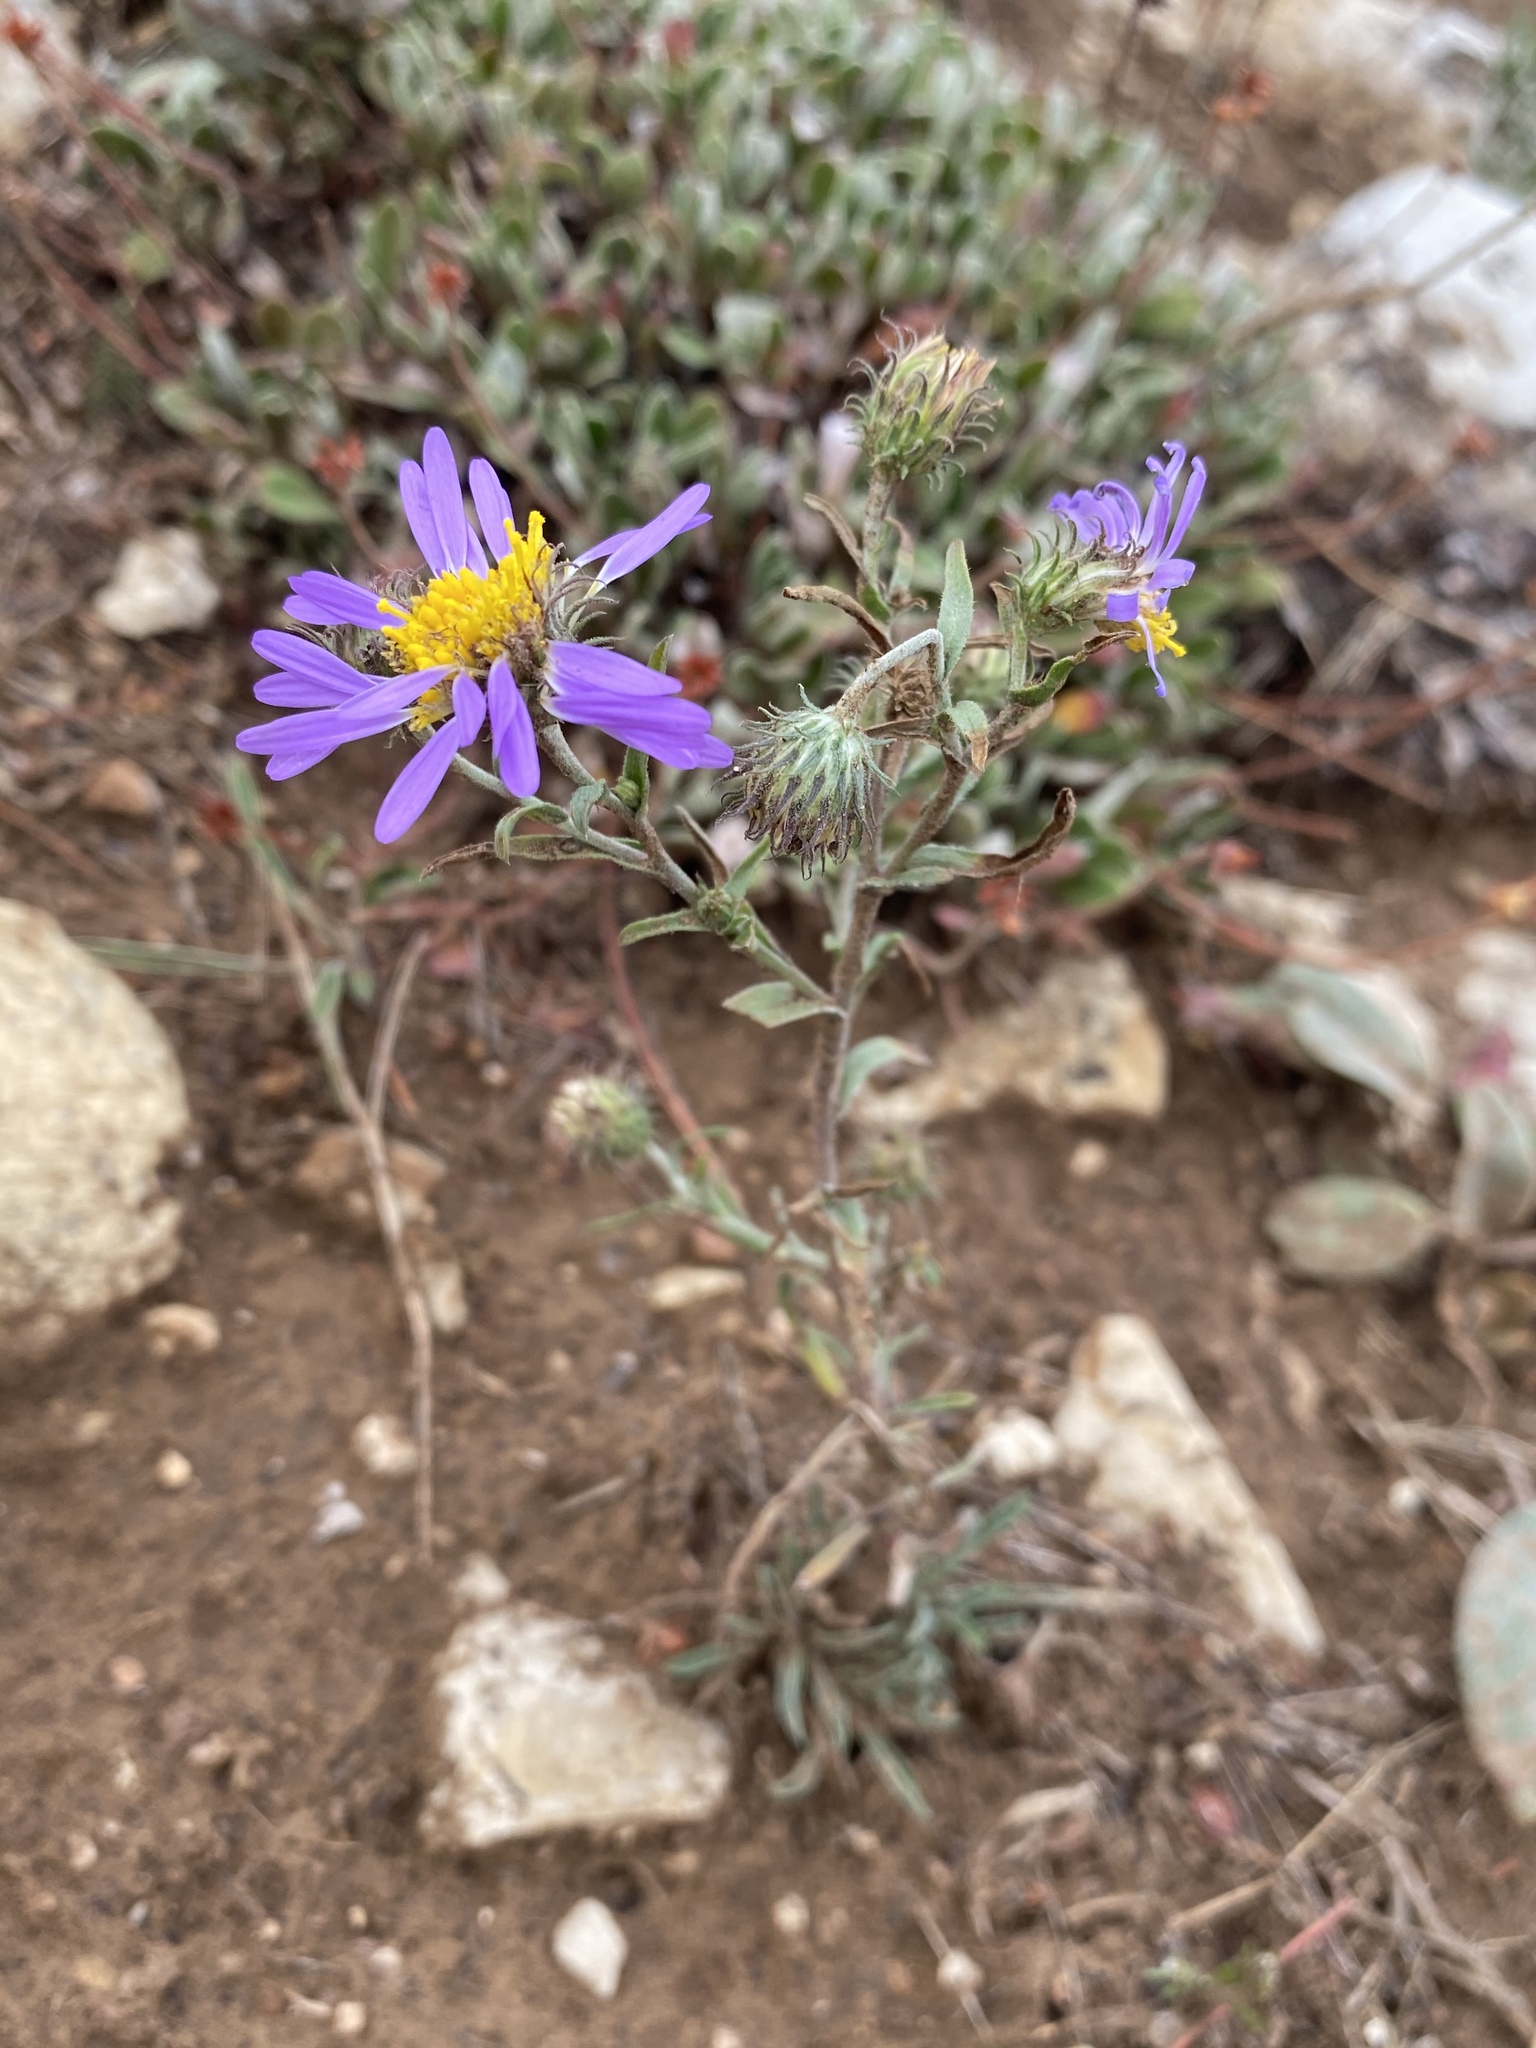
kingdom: Plantae
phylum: Tracheophyta
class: Magnoliopsida
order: Asterales
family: Asteraceae
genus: Dieteria
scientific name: Dieteria bigelovii
